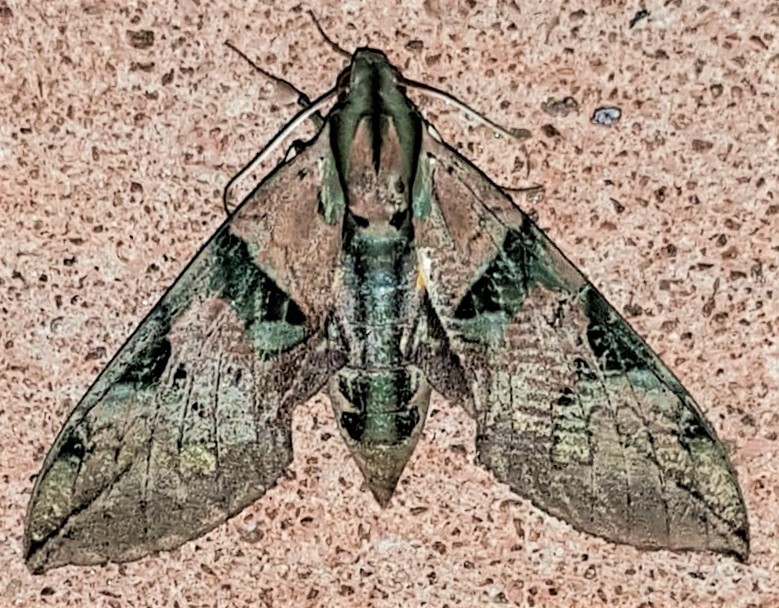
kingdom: Animalia
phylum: Arthropoda
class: Insecta
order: Lepidoptera
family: Sphingidae
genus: Eumorpha
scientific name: Eumorpha capronnieri
